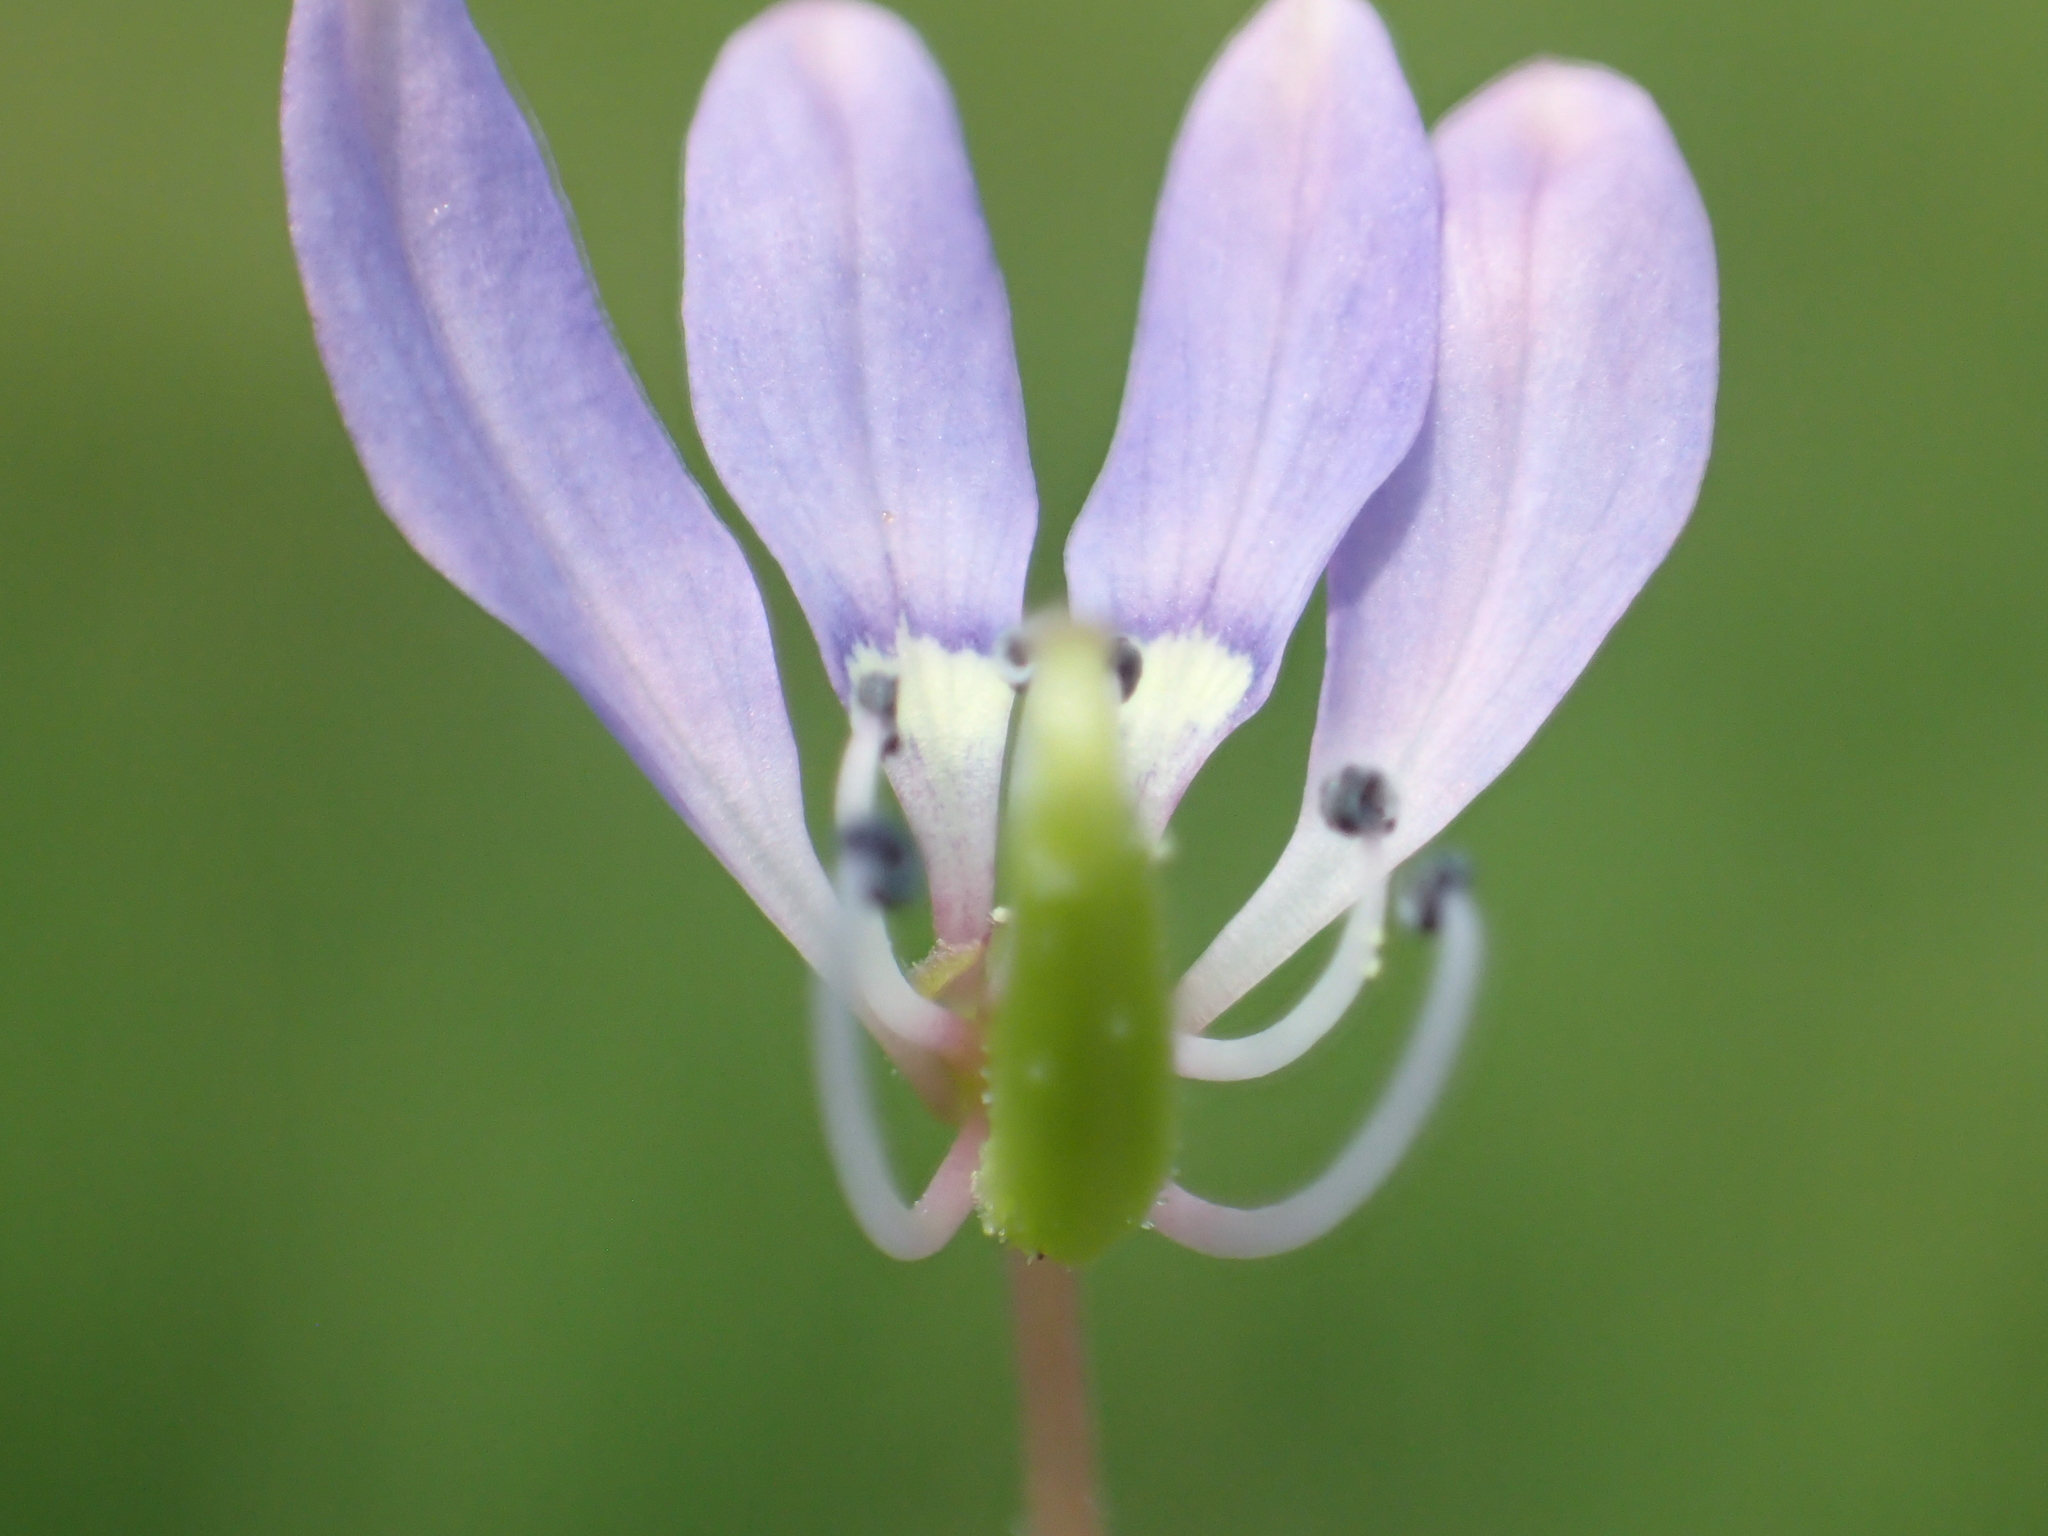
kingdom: Plantae
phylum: Tracheophyta
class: Magnoliopsida
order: Brassicales
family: Cleomaceae
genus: Sieruela
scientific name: Sieruela rutidosperma
